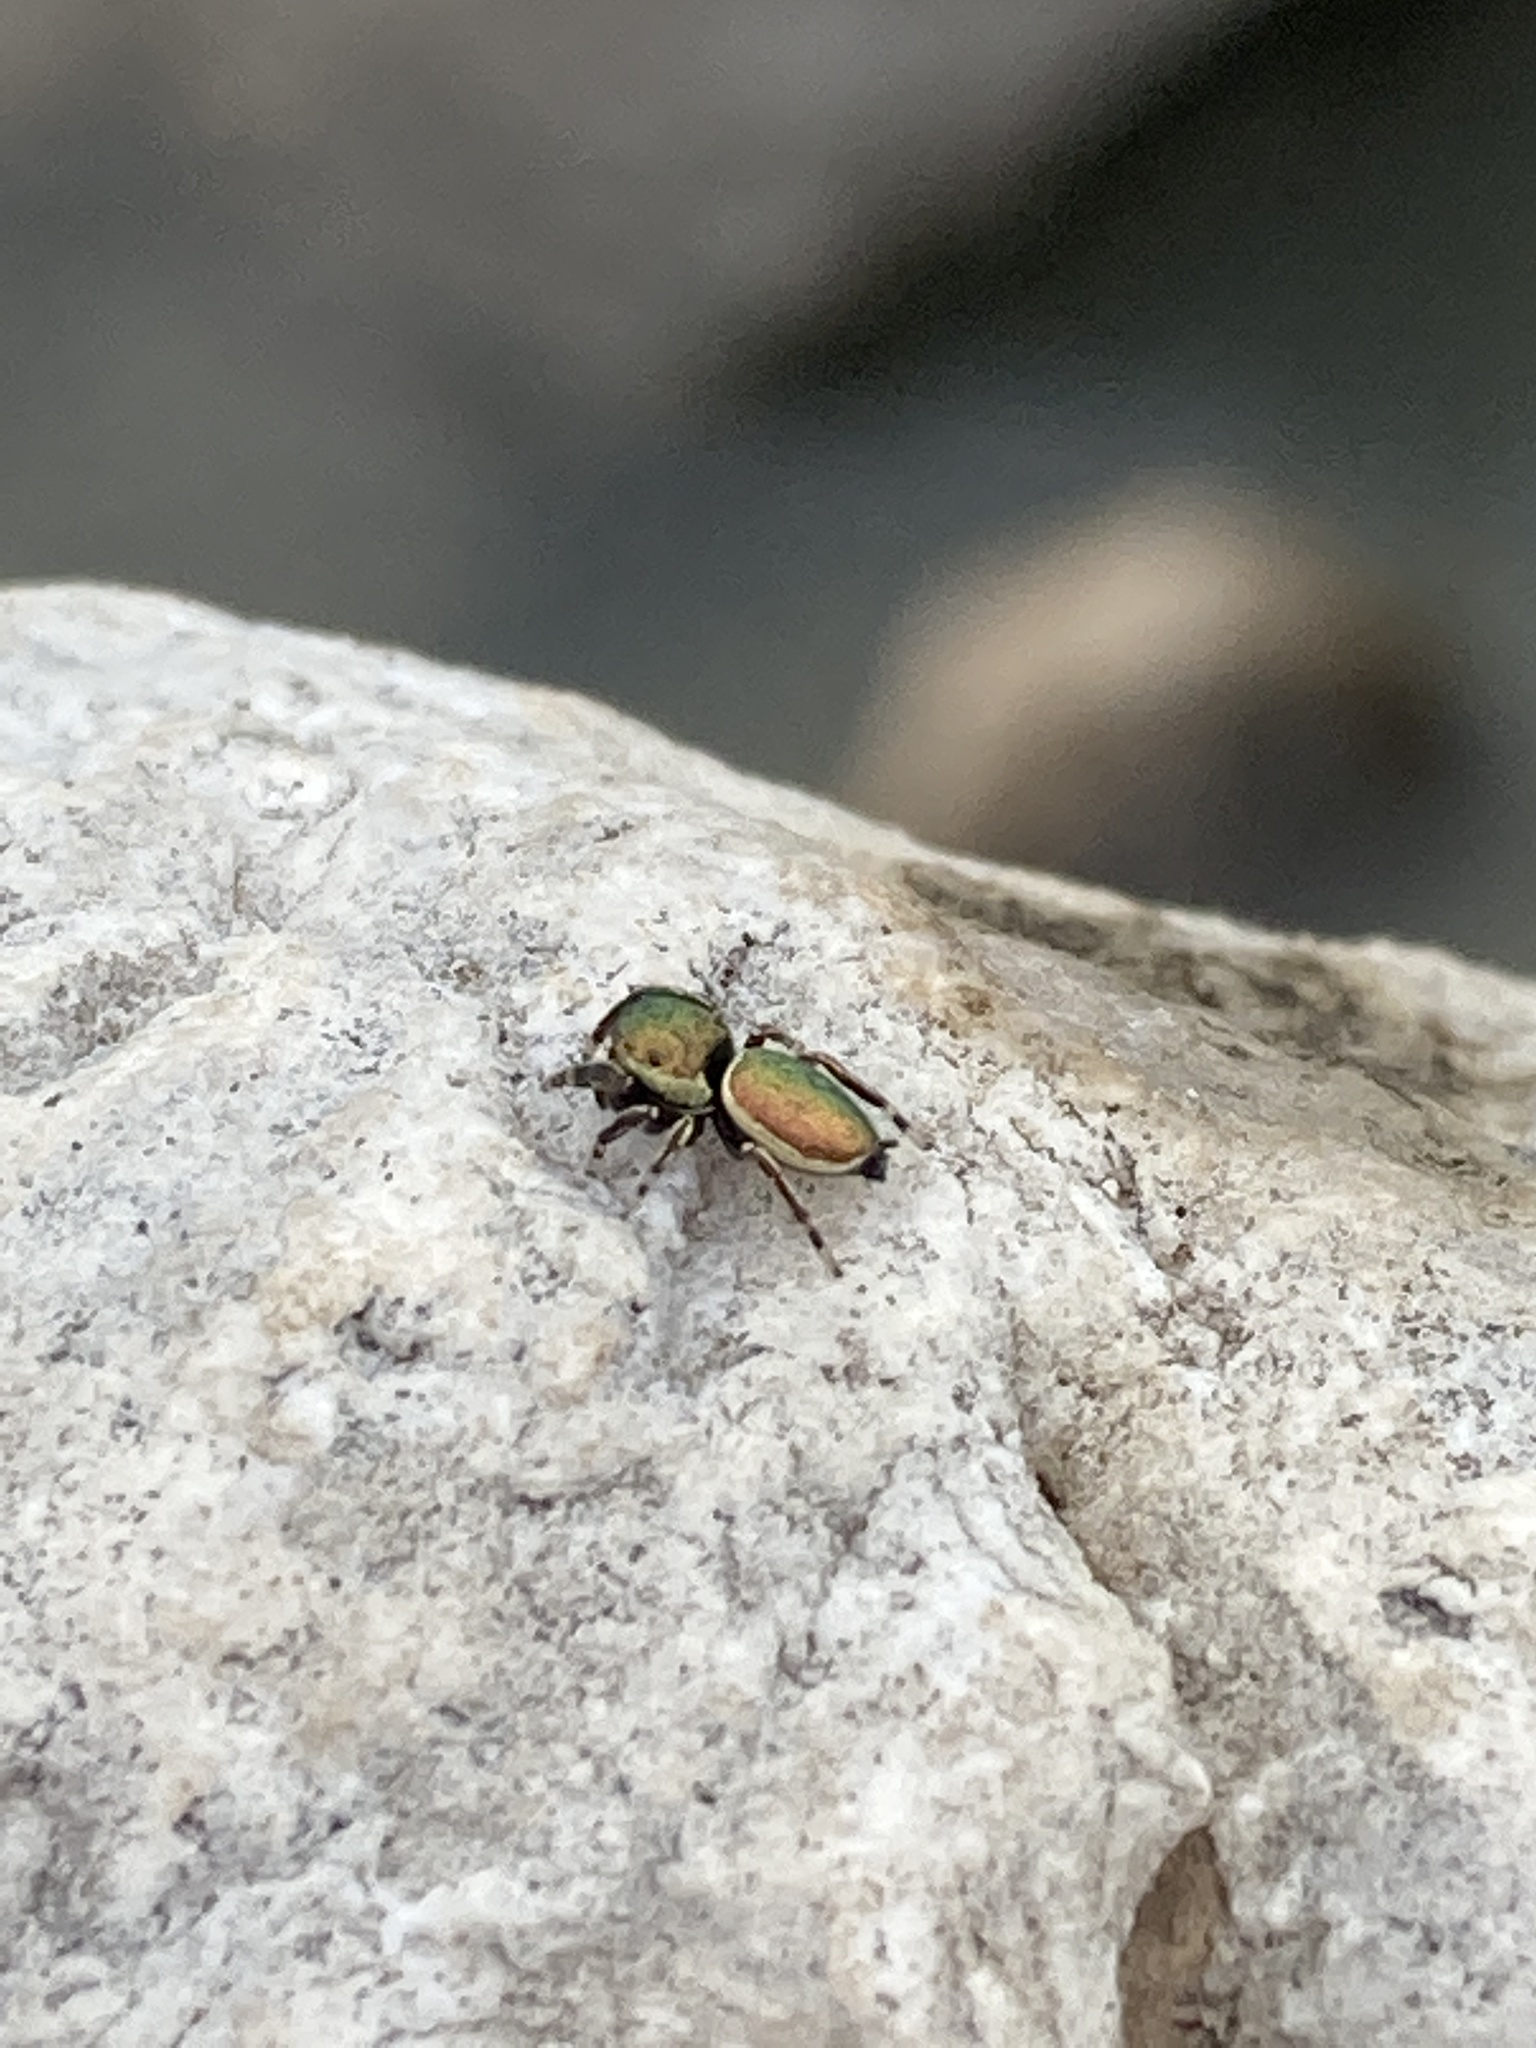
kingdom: Animalia
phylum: Arthropoda
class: Arachnida
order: Araneae
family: Salticidae
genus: Sassacus
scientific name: Sassacus papenhoei
